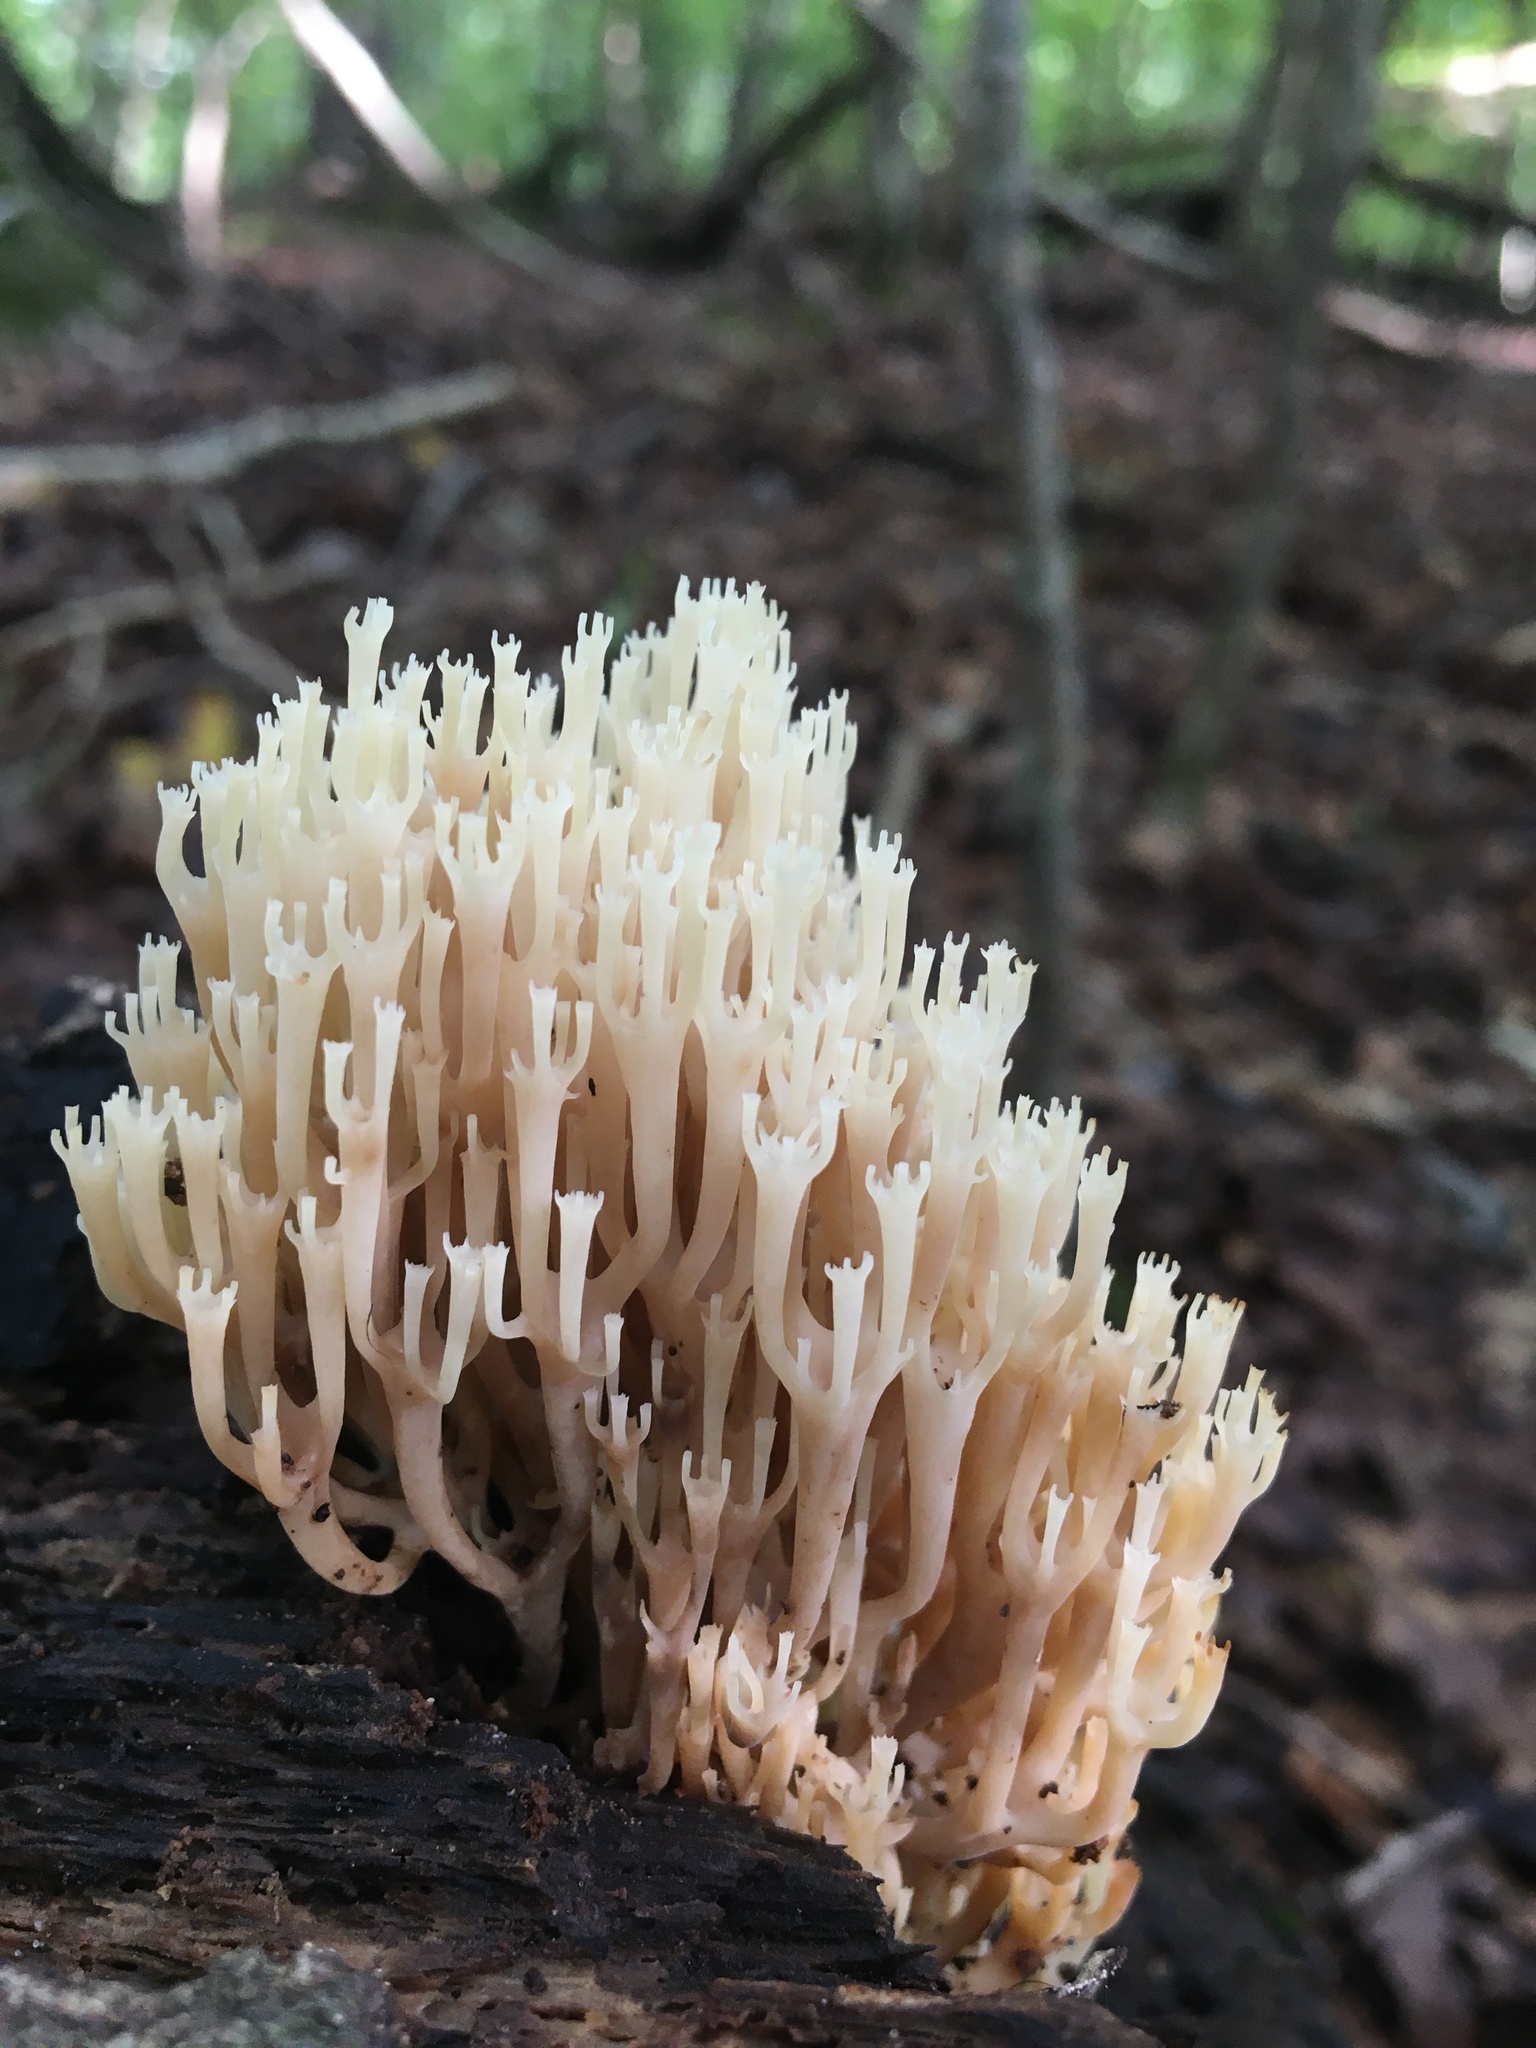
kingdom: Fungi
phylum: Basidiomycota
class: Agaricomycetes
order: Russulales
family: Auriscalpiaceae
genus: Artomyces
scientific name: Artomyces pyxidatus
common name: Crown-tipped coral fungus
